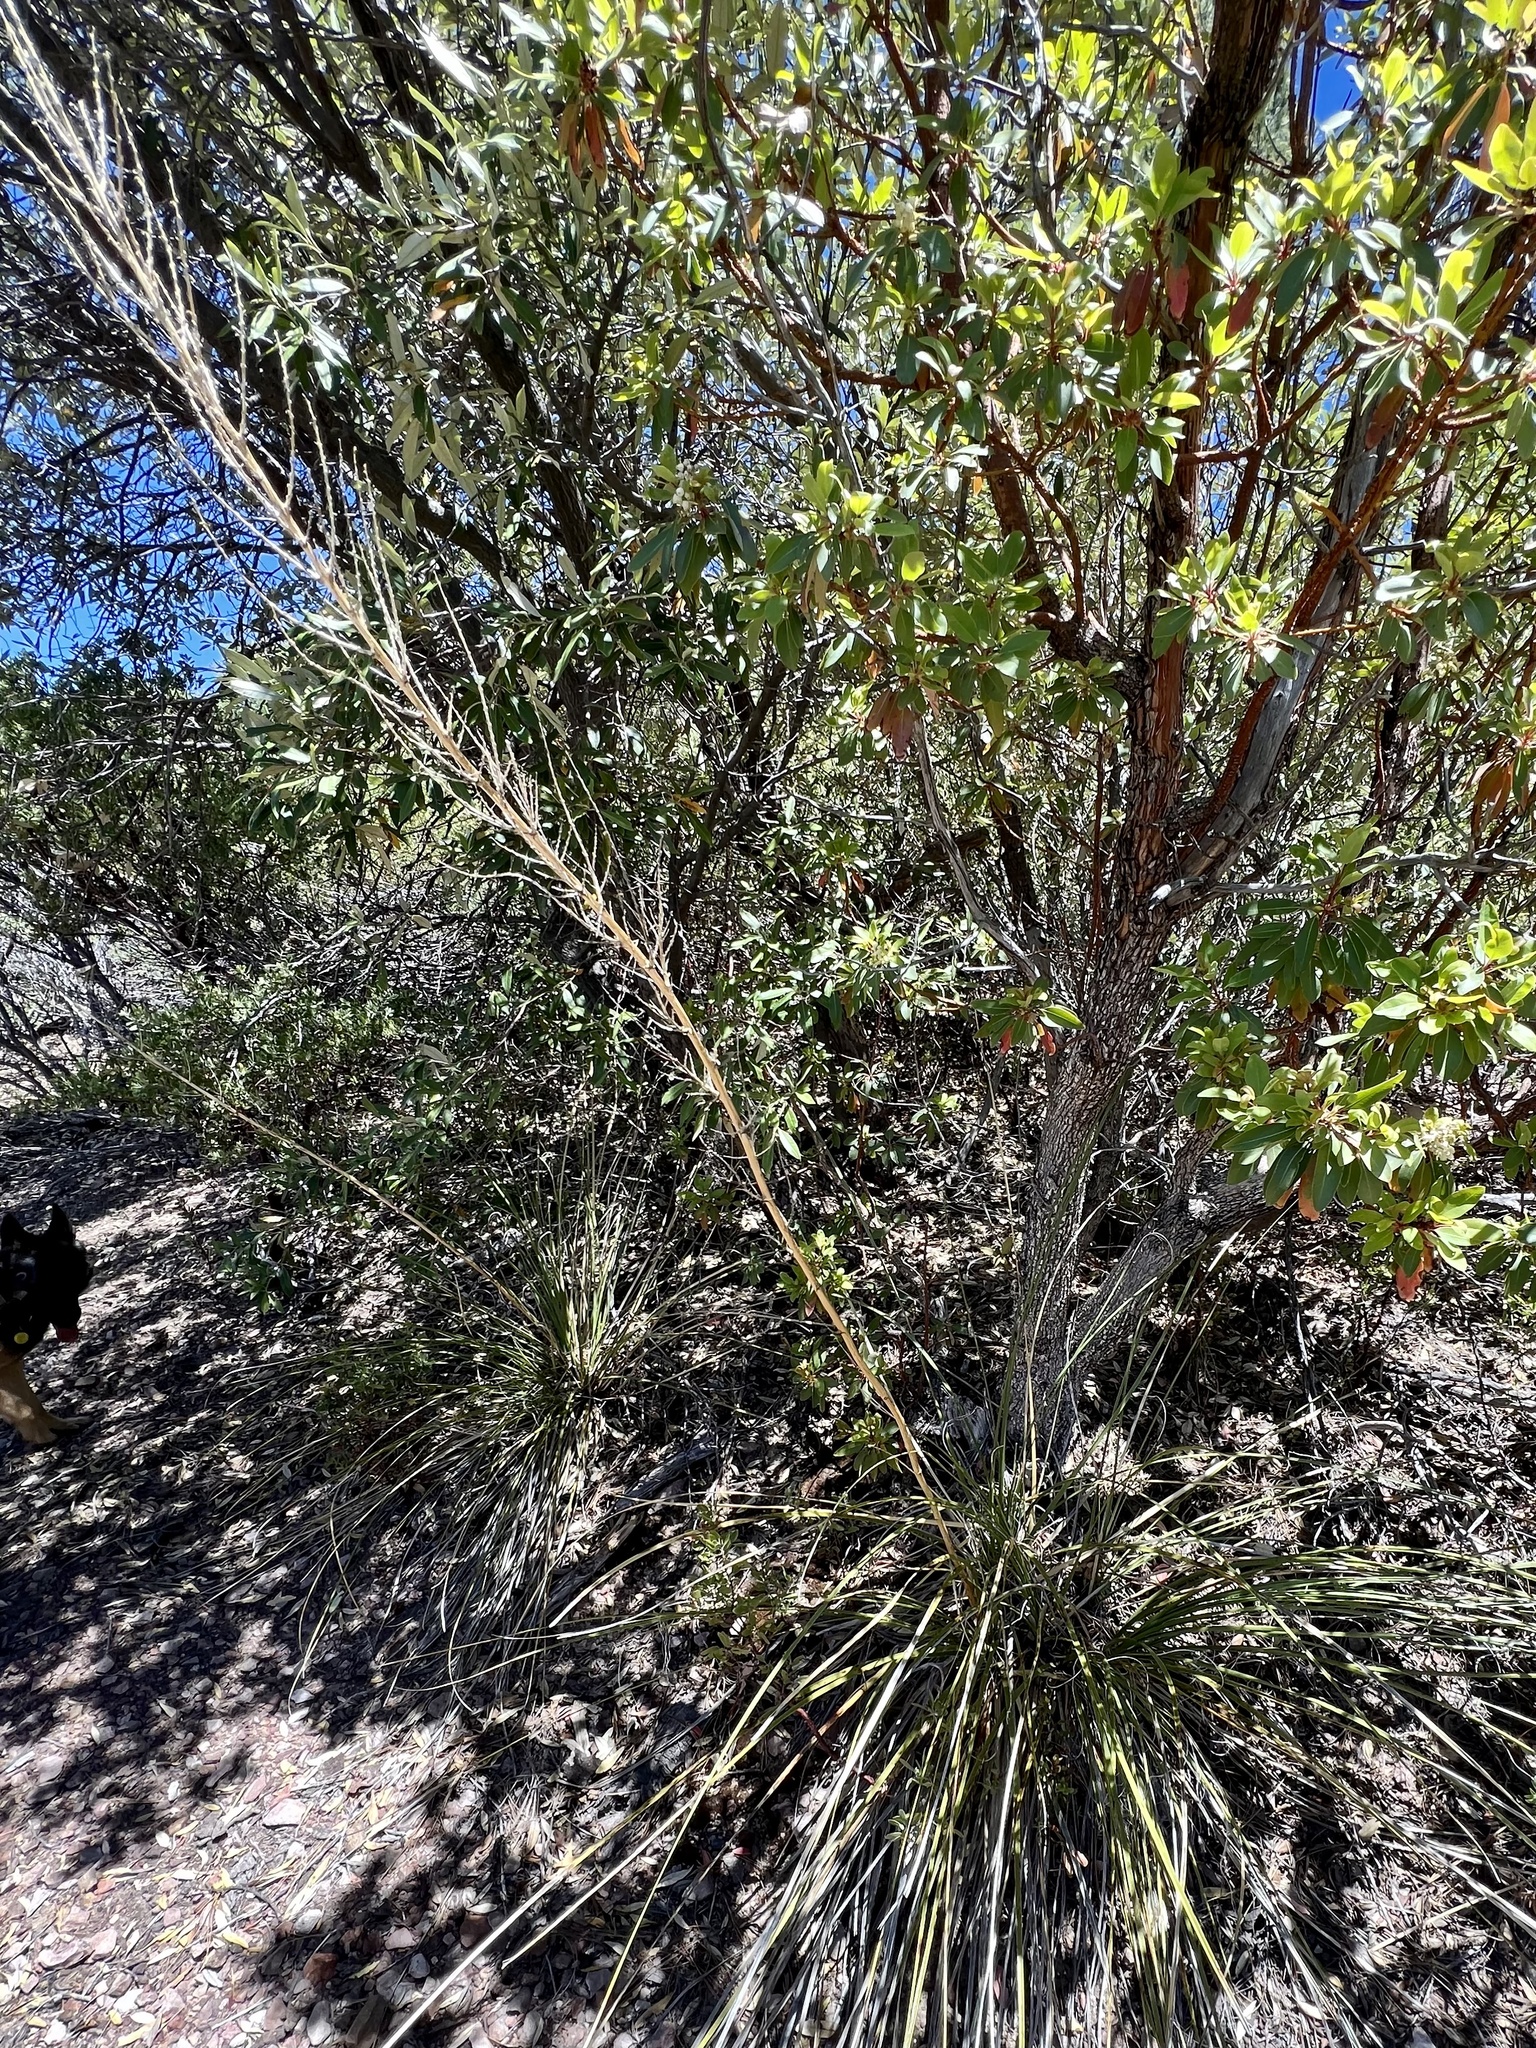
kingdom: Plantae
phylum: Tracheophyta
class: Liliopsida
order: Asparagales
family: Asparagaceae
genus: Nolina
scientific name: Nolina microcarpa
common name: Bear-grass
